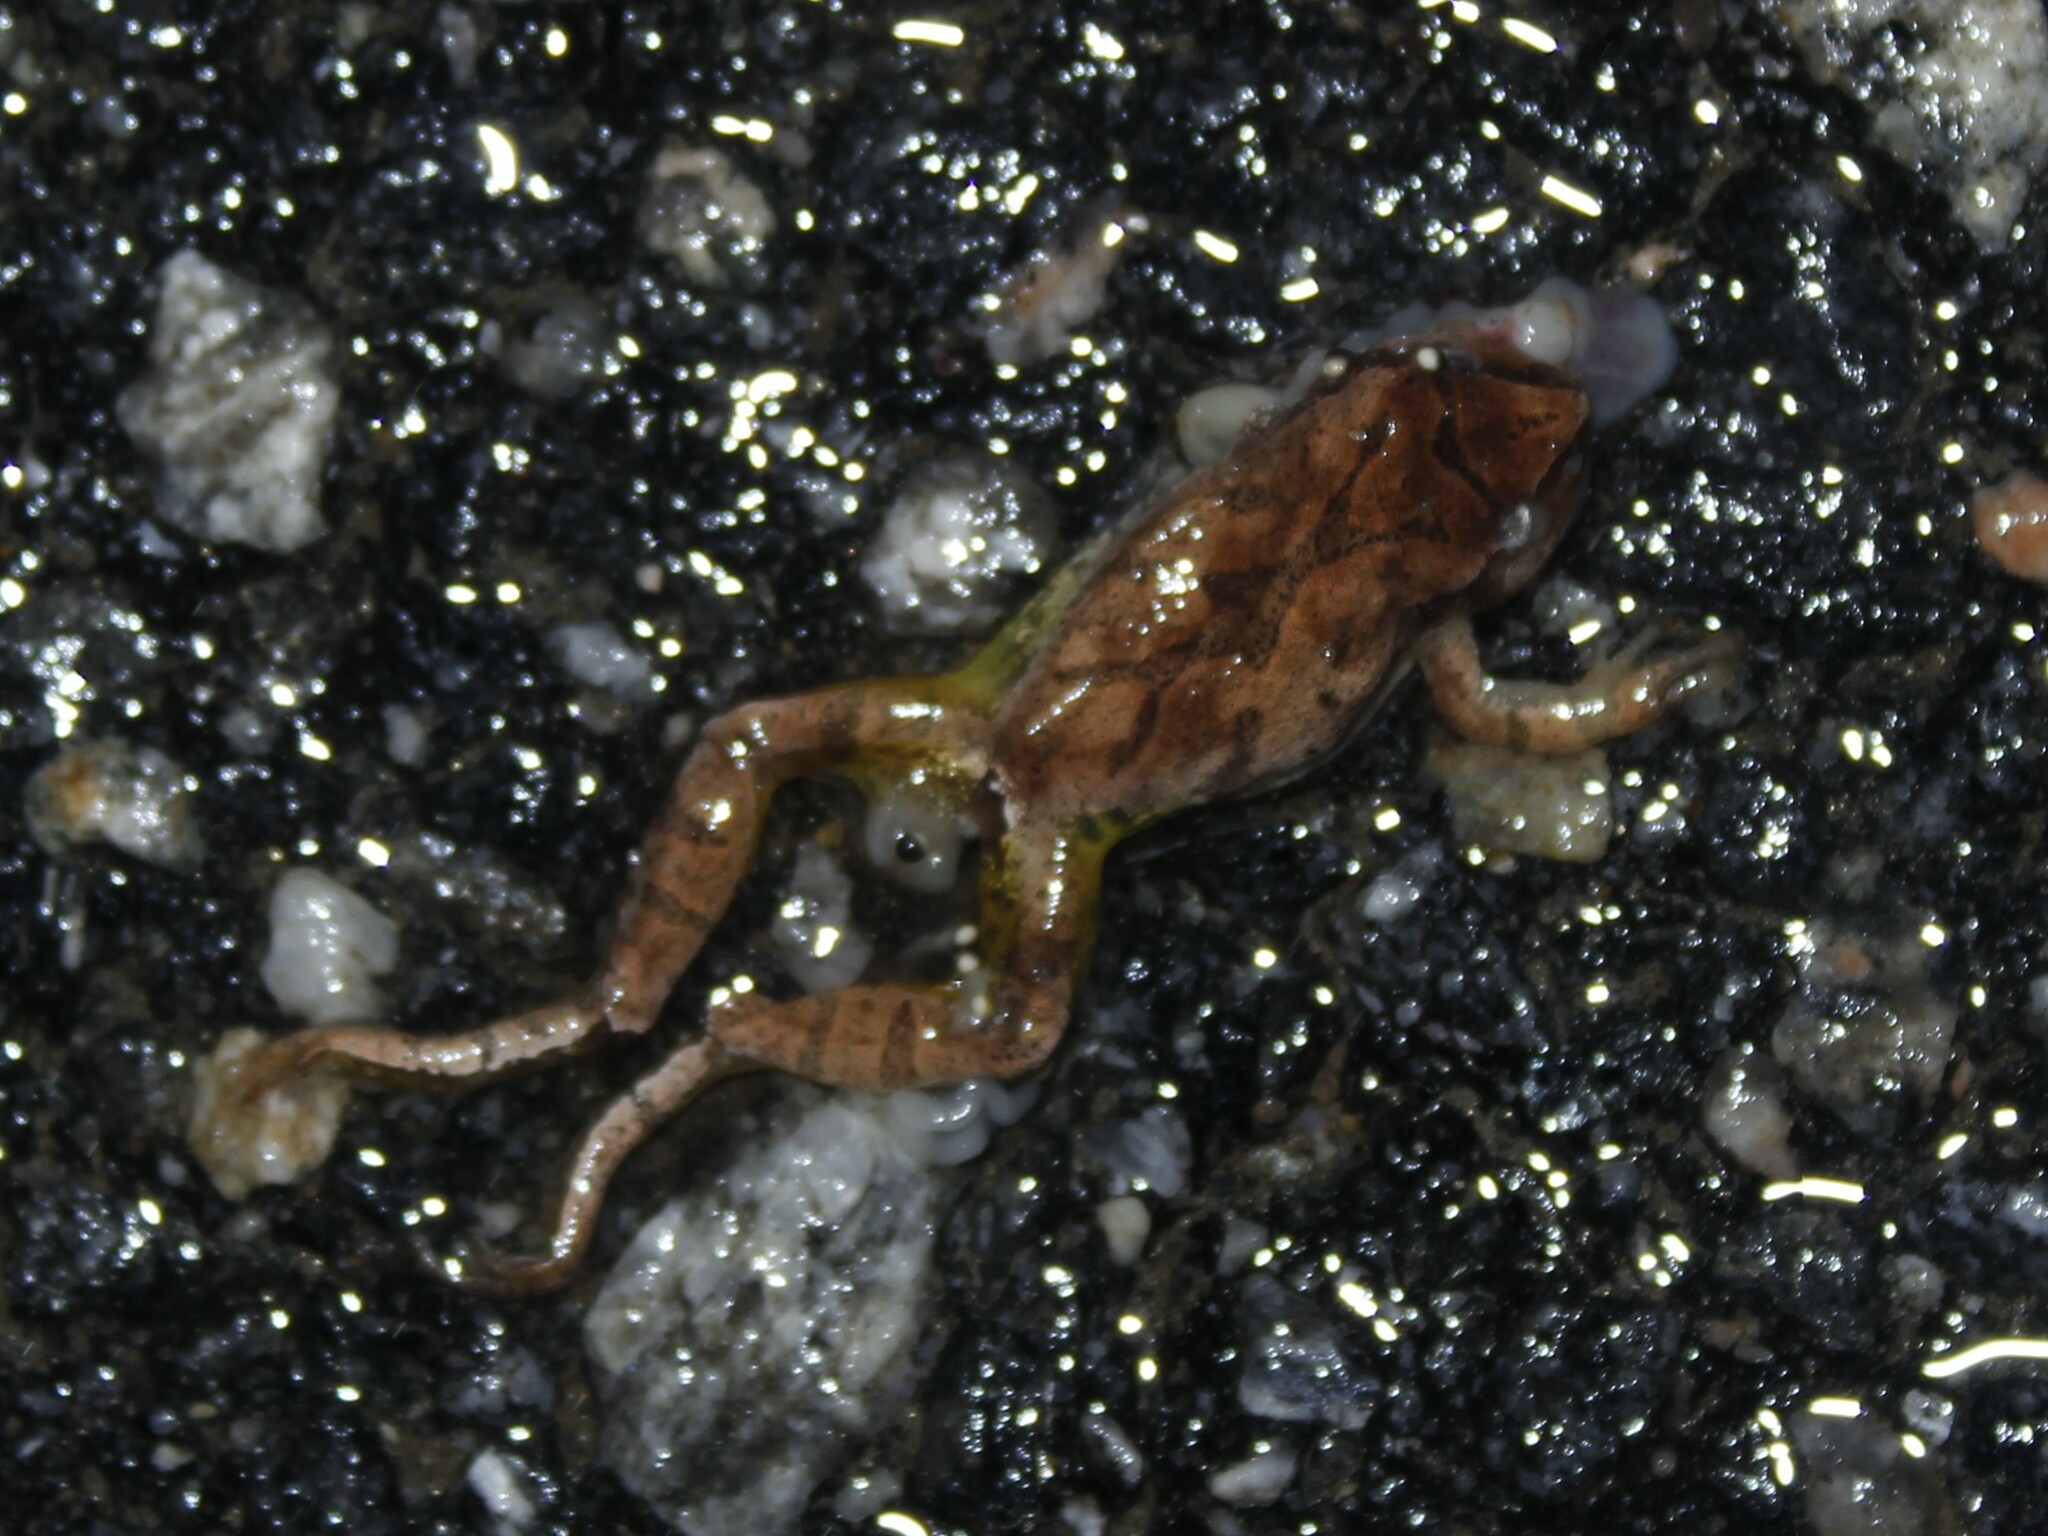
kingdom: Animalia
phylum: Chordata
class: Amphibia
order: Anura
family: Hylidae
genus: Pseudacris
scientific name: Pseudacris crucifer
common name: Spring peeper
